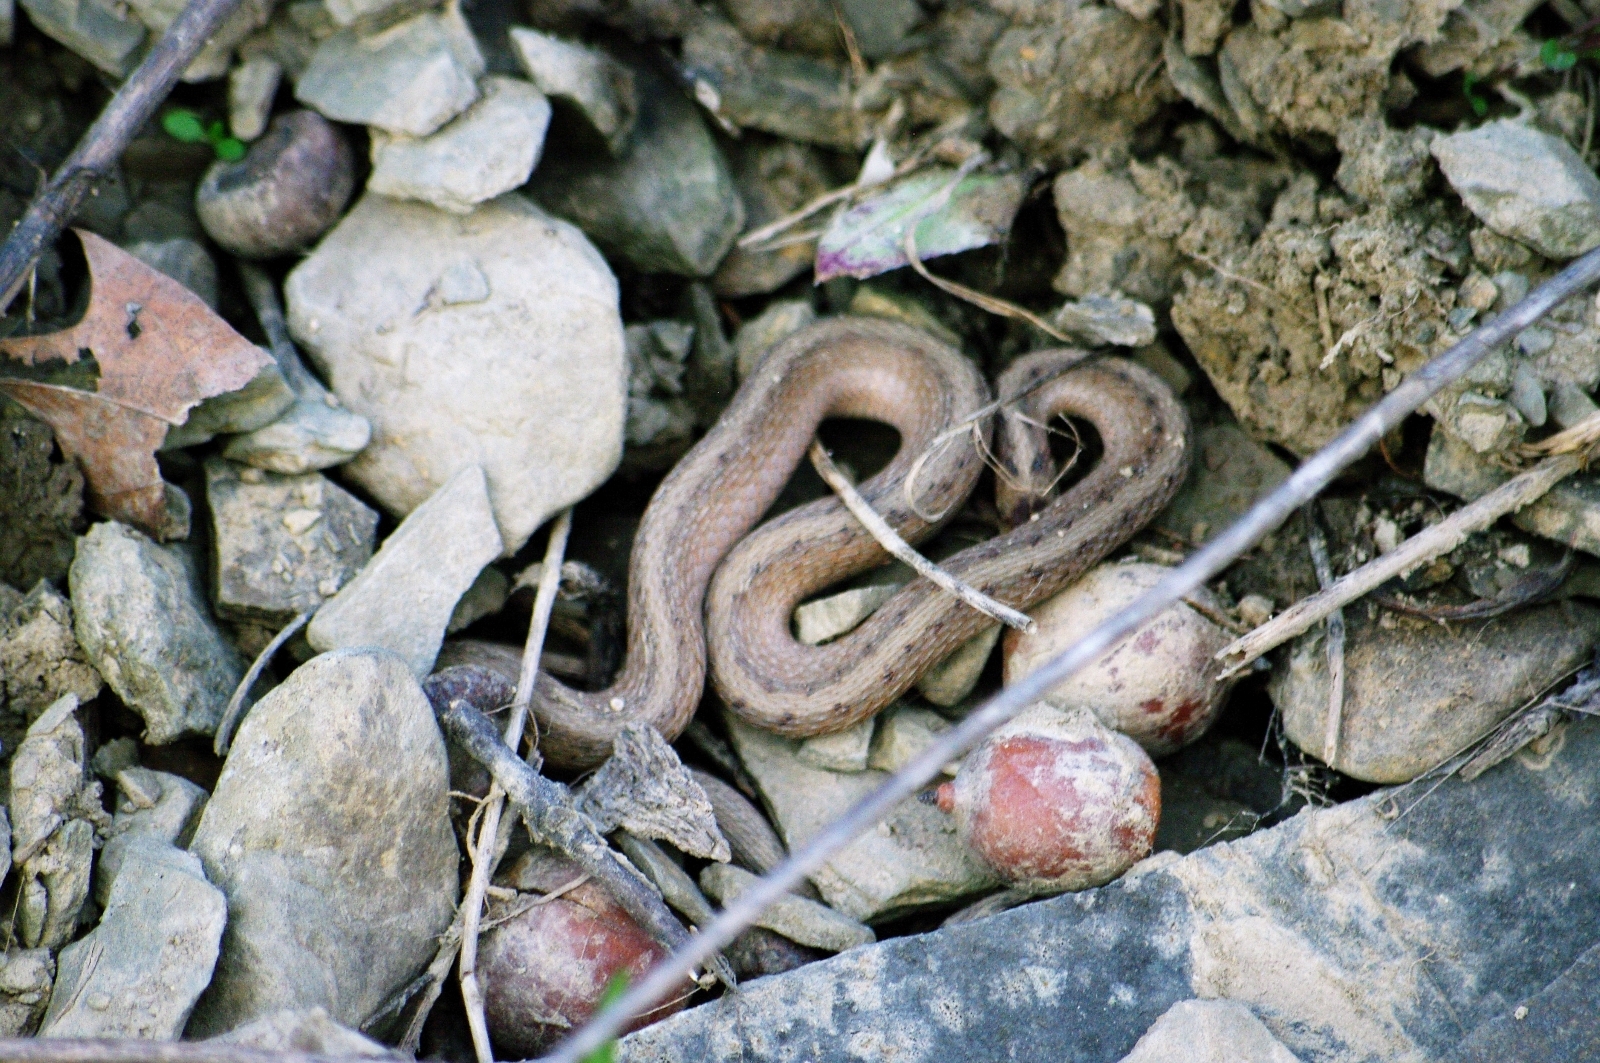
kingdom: Animalia
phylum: Chordata
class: Squamata
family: Colubridae
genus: Storeria
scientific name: Storeria dekayi
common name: (dekay’s) brown snake
